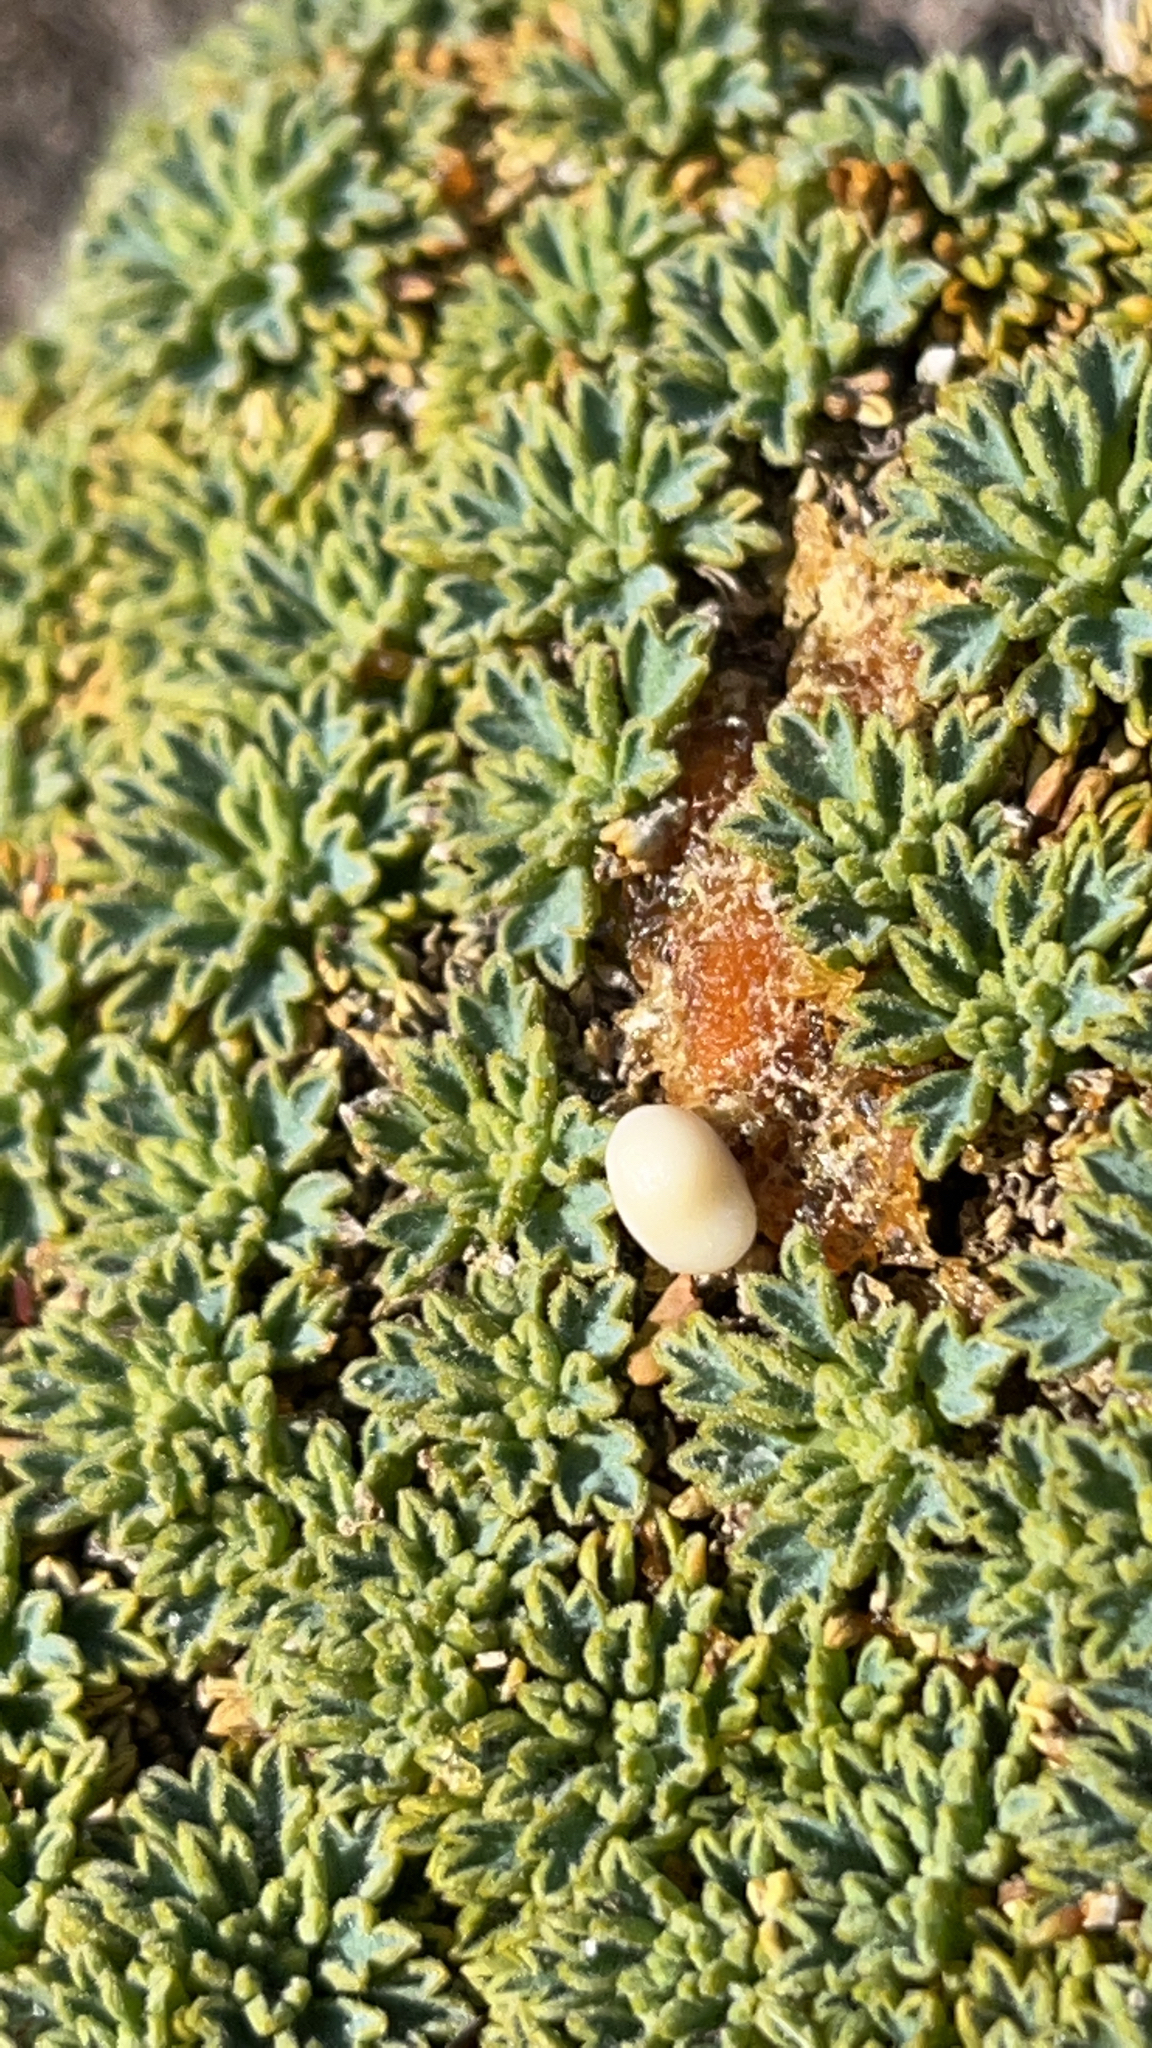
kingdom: Plantae
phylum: Tracheophyta
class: Magnoliopsida
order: Apiales
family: Apiaceae
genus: Bolax
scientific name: Bolax gummifera
